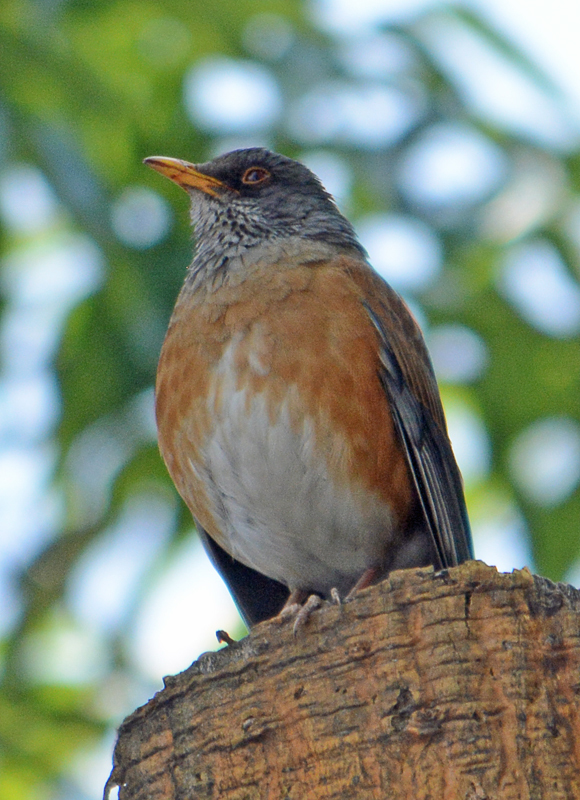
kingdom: Animalia
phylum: Chordata
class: Aves
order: Passeriformes
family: Turdidae
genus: Turdus
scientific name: Turdus rufopalliatus
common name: Rufous-backed robin
